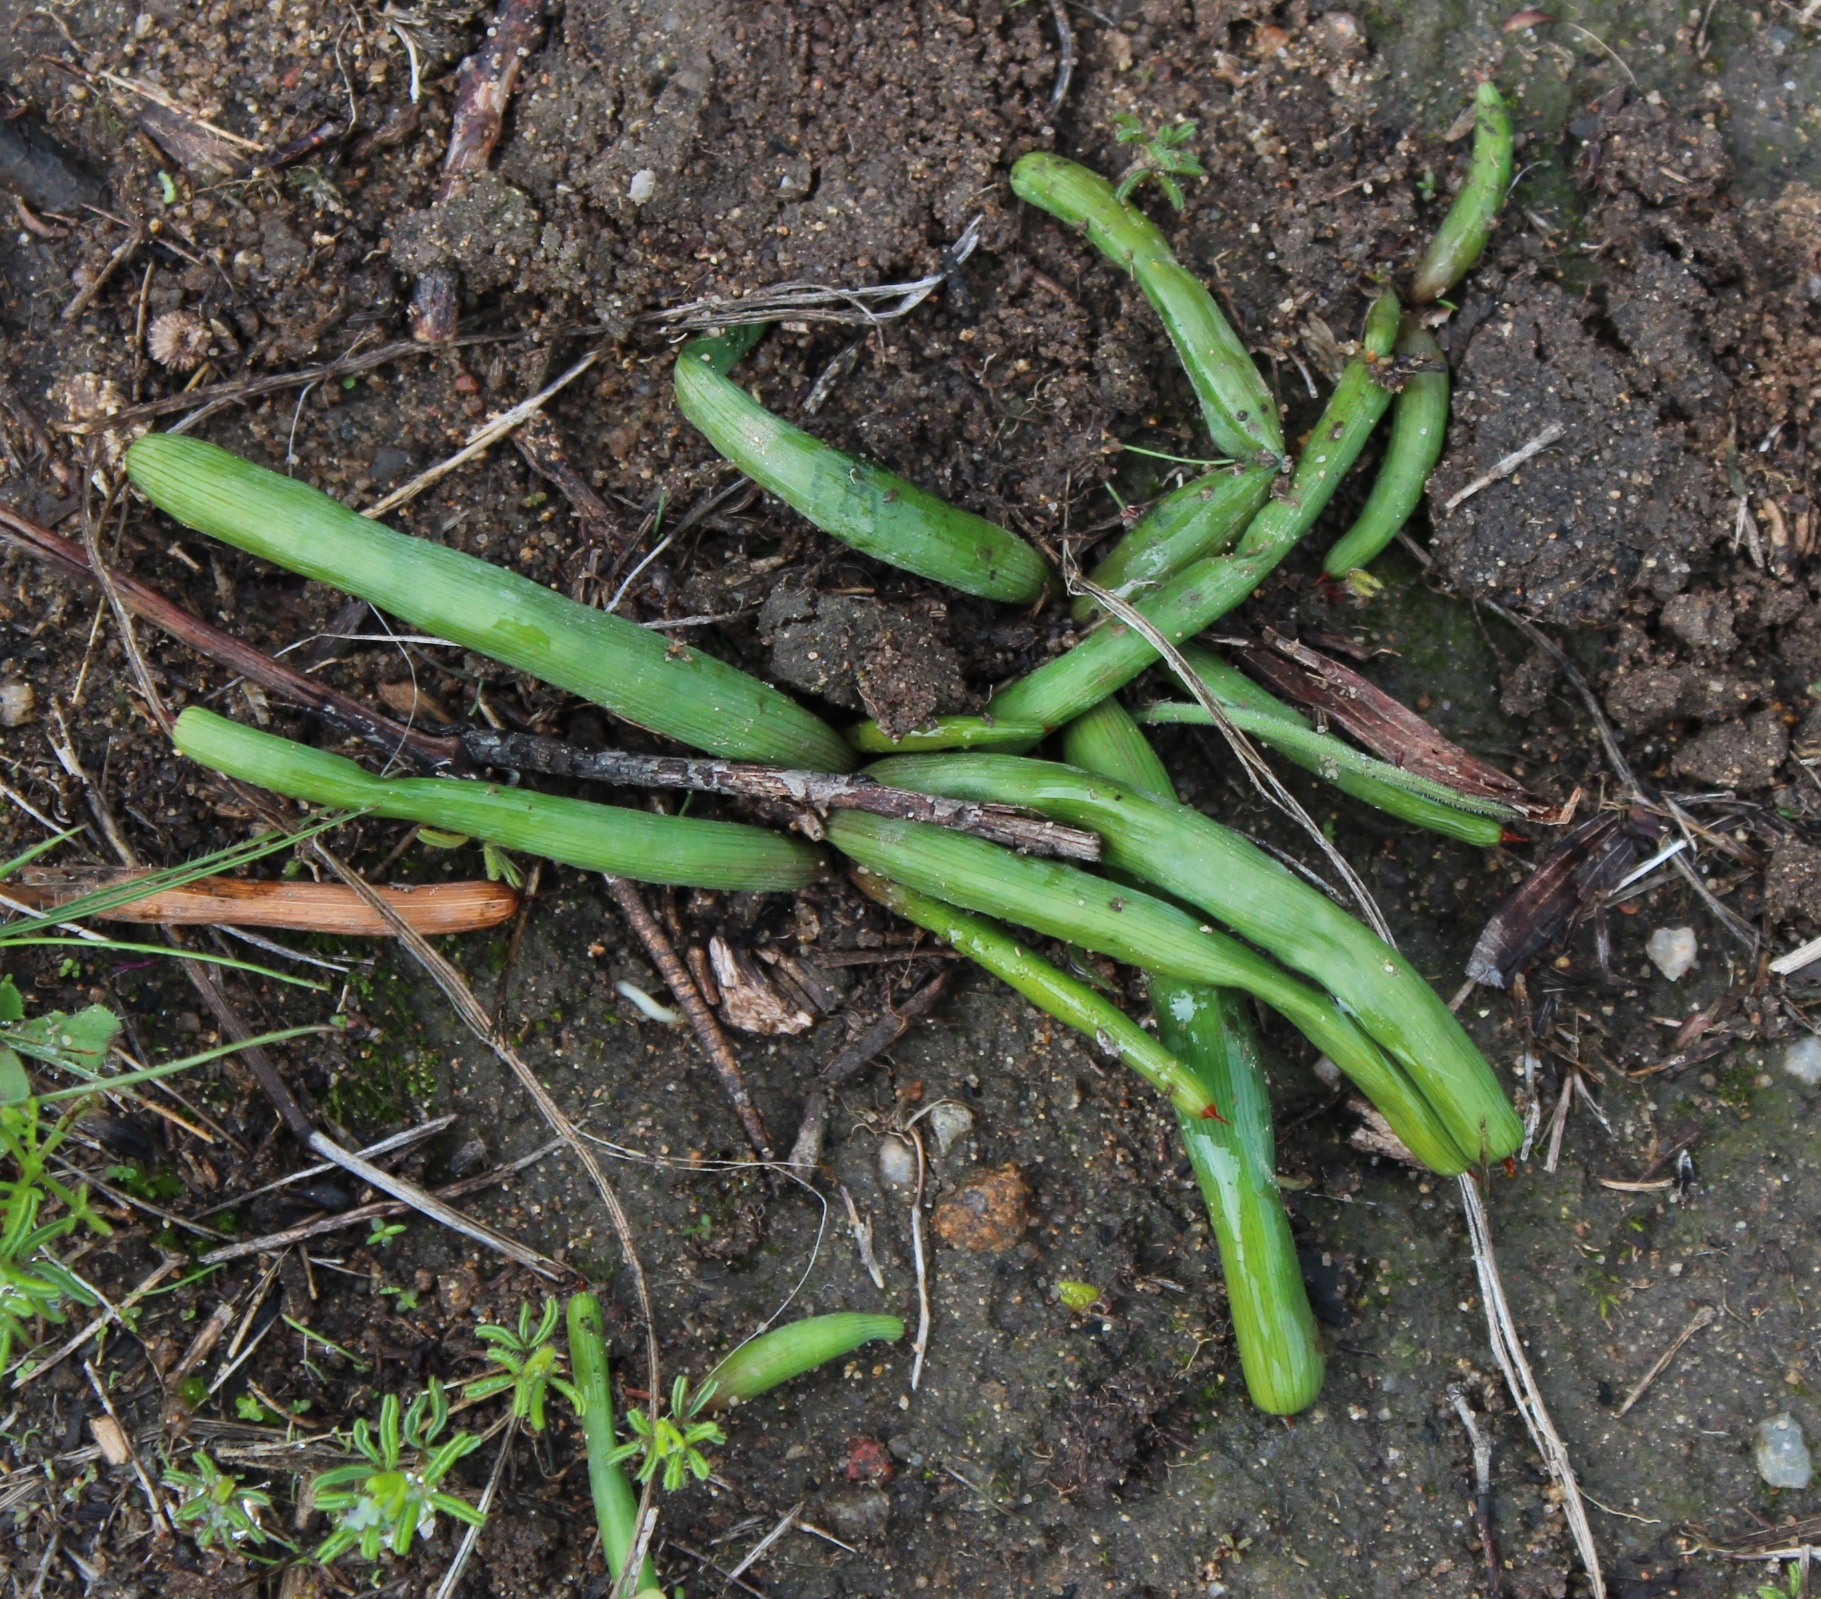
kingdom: Plantae
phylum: Tracheophyta
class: Liliopsida
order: Asparagales
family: Iridaceae
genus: Micranthus
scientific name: Micranthus tubulosus
